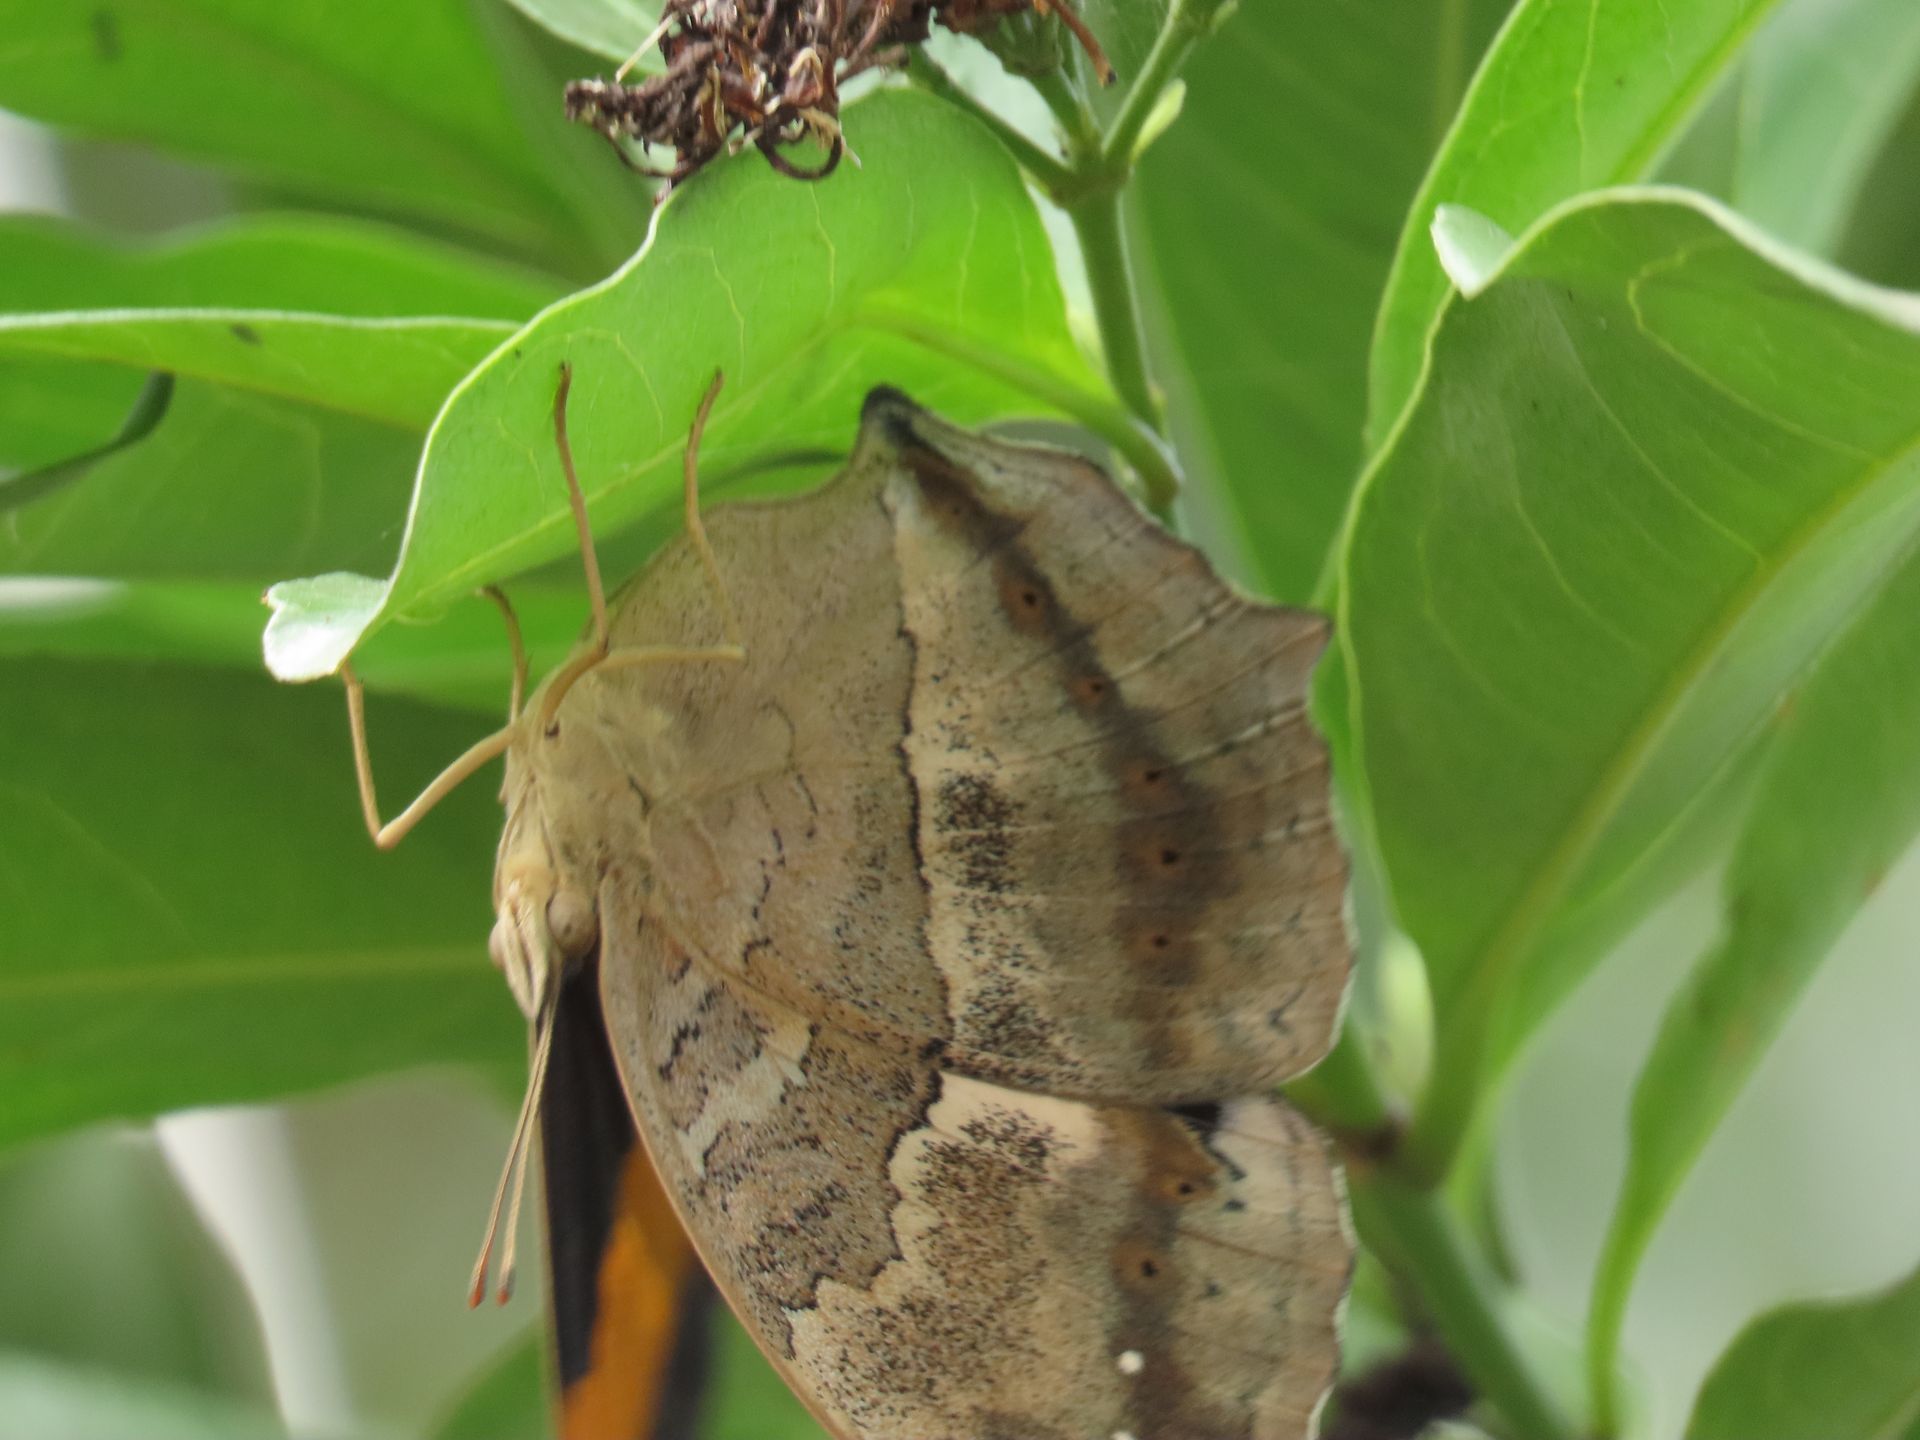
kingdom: Animalia
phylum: Arthropoda
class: Insecta
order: Lepidoptera
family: Nymphalidae
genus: Yoma
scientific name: Yoma sabina
